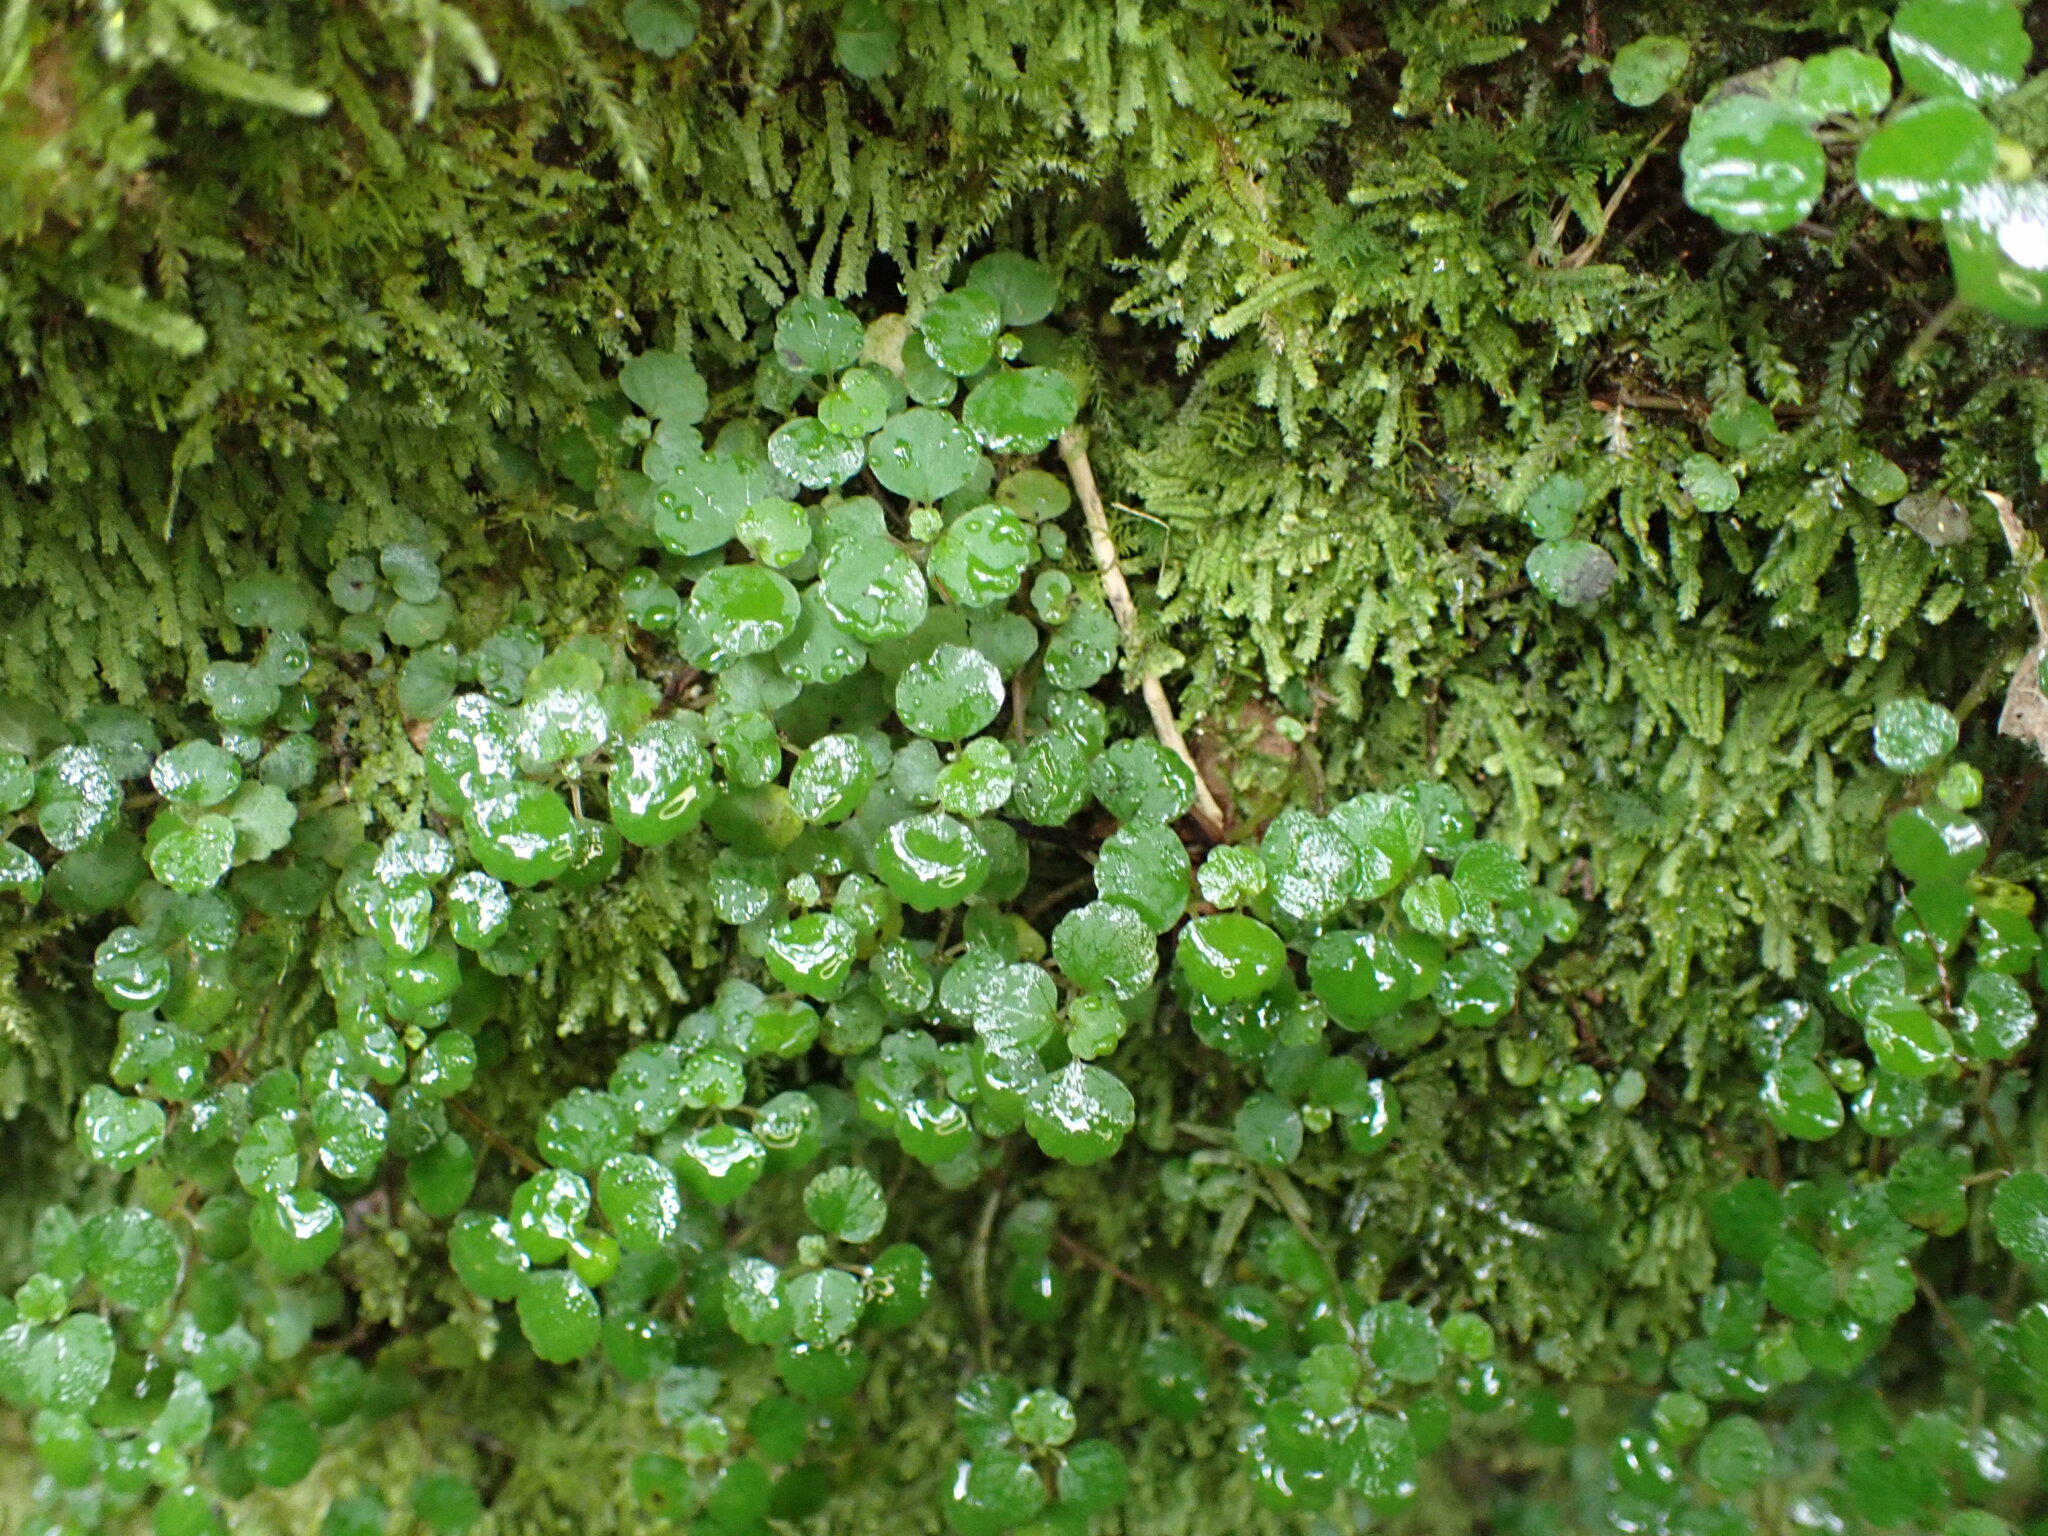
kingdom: Plantae
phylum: Tracheophyta
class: Magnoliopsida
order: Rosales
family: Urticaceae
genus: Australina
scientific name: Australina pusilla
